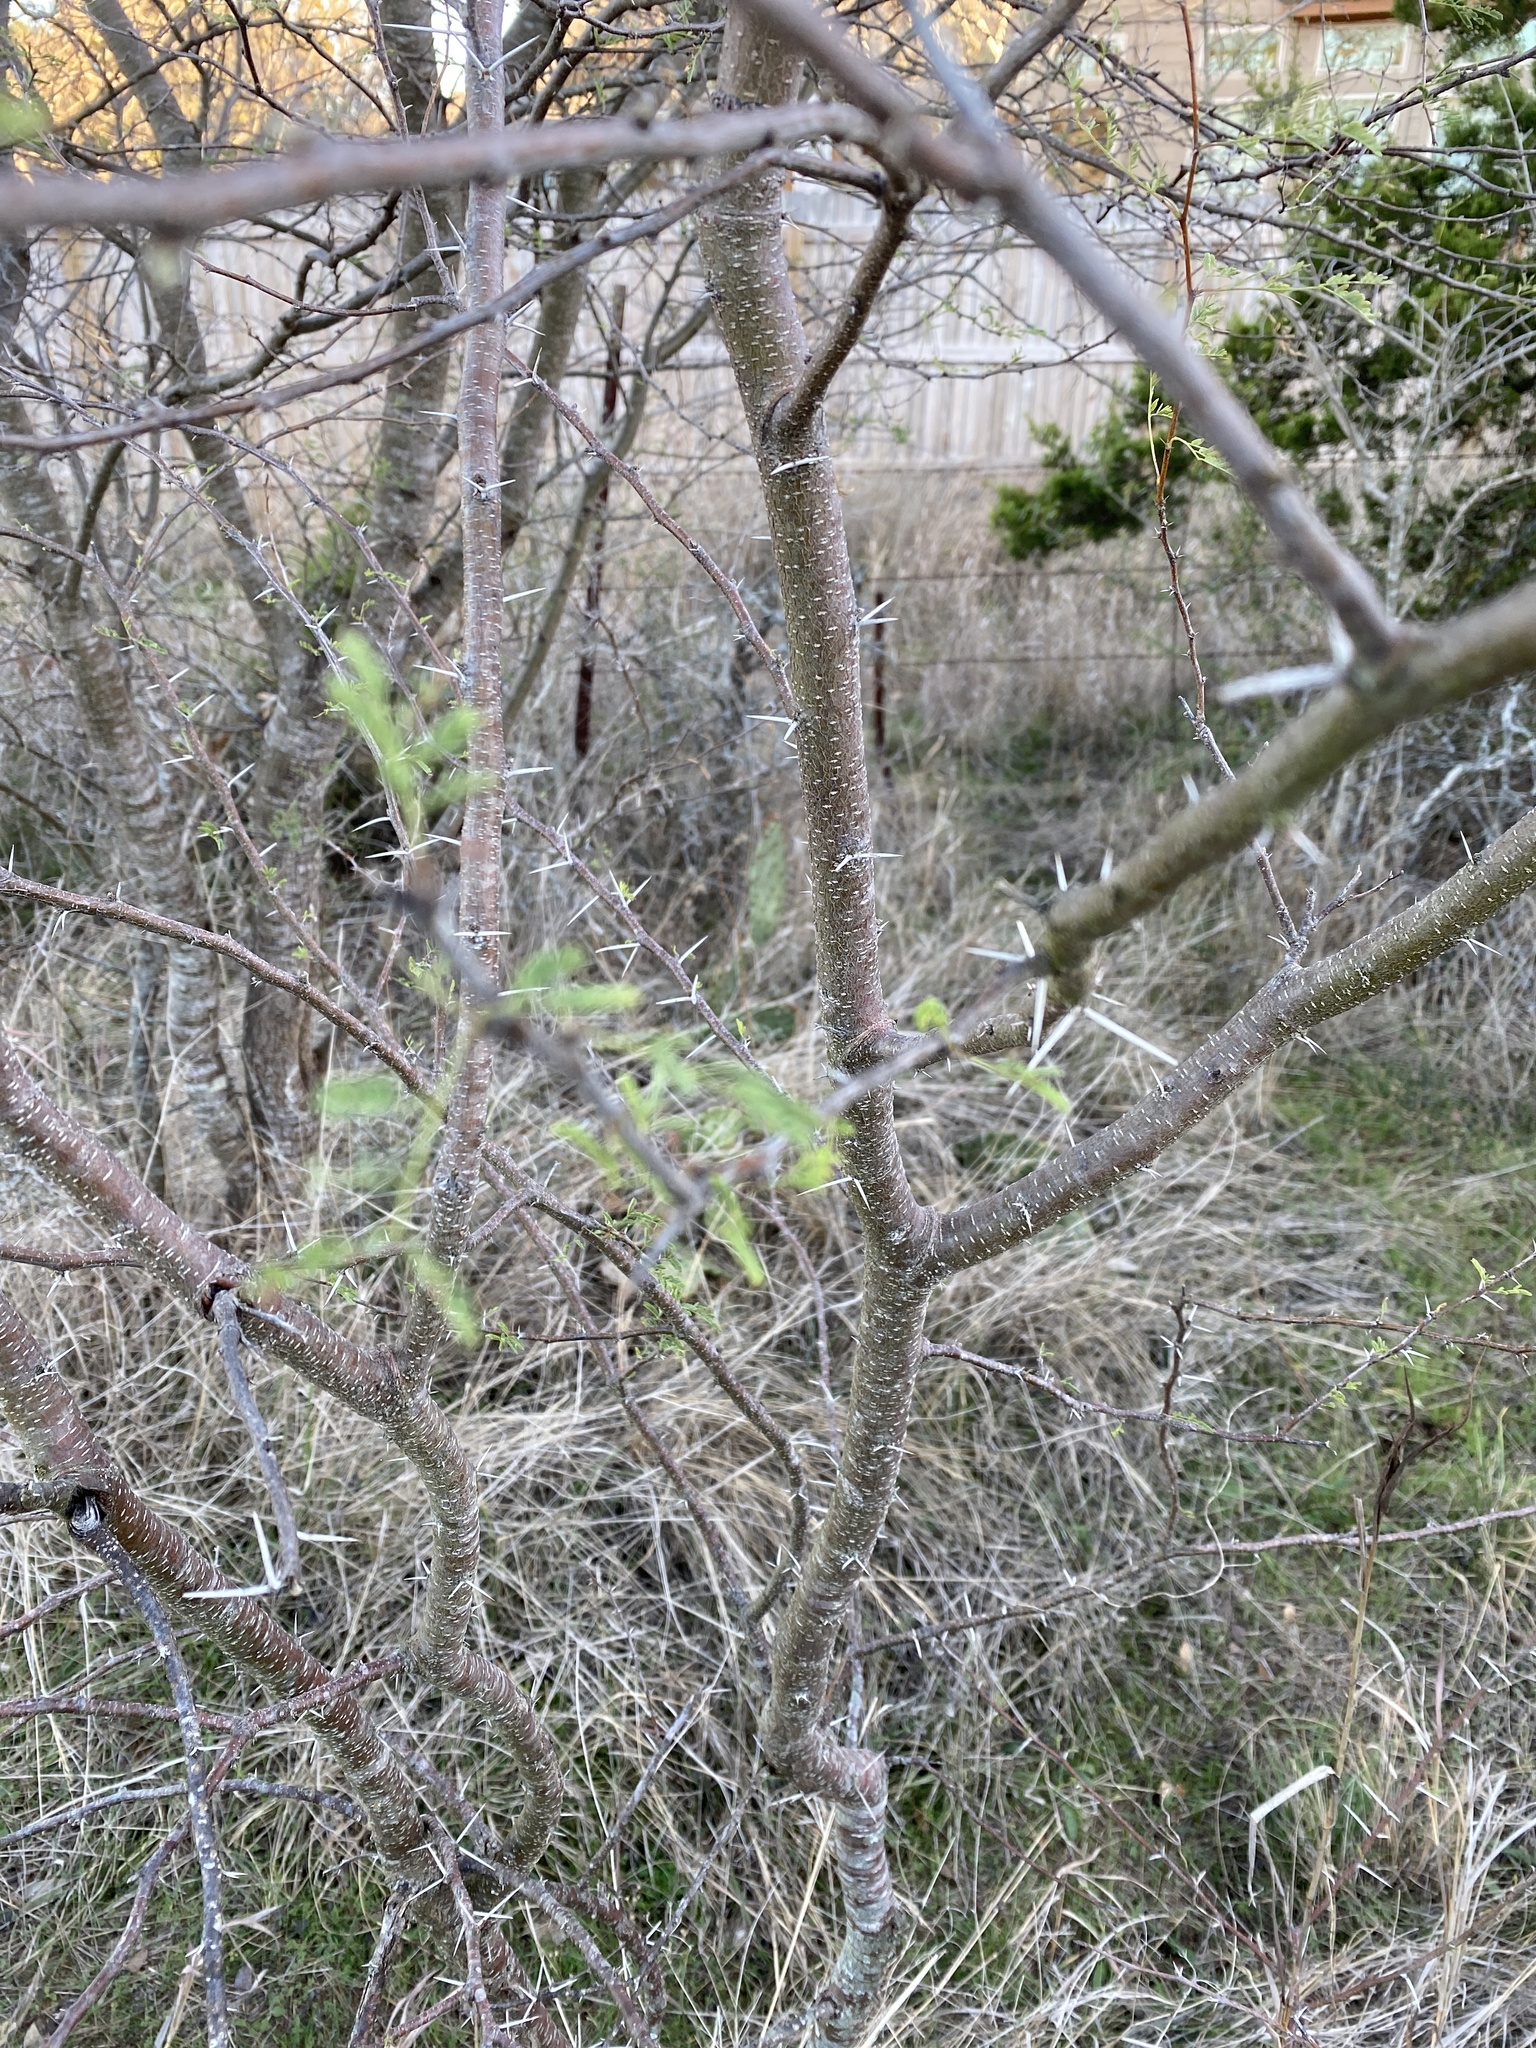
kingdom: Plantae
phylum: Tracheophyta
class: Magnoliopsida
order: Fabales
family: Fabaceae
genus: Vachellia
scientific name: Vachellia farnesiana
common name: Sweet acacia
